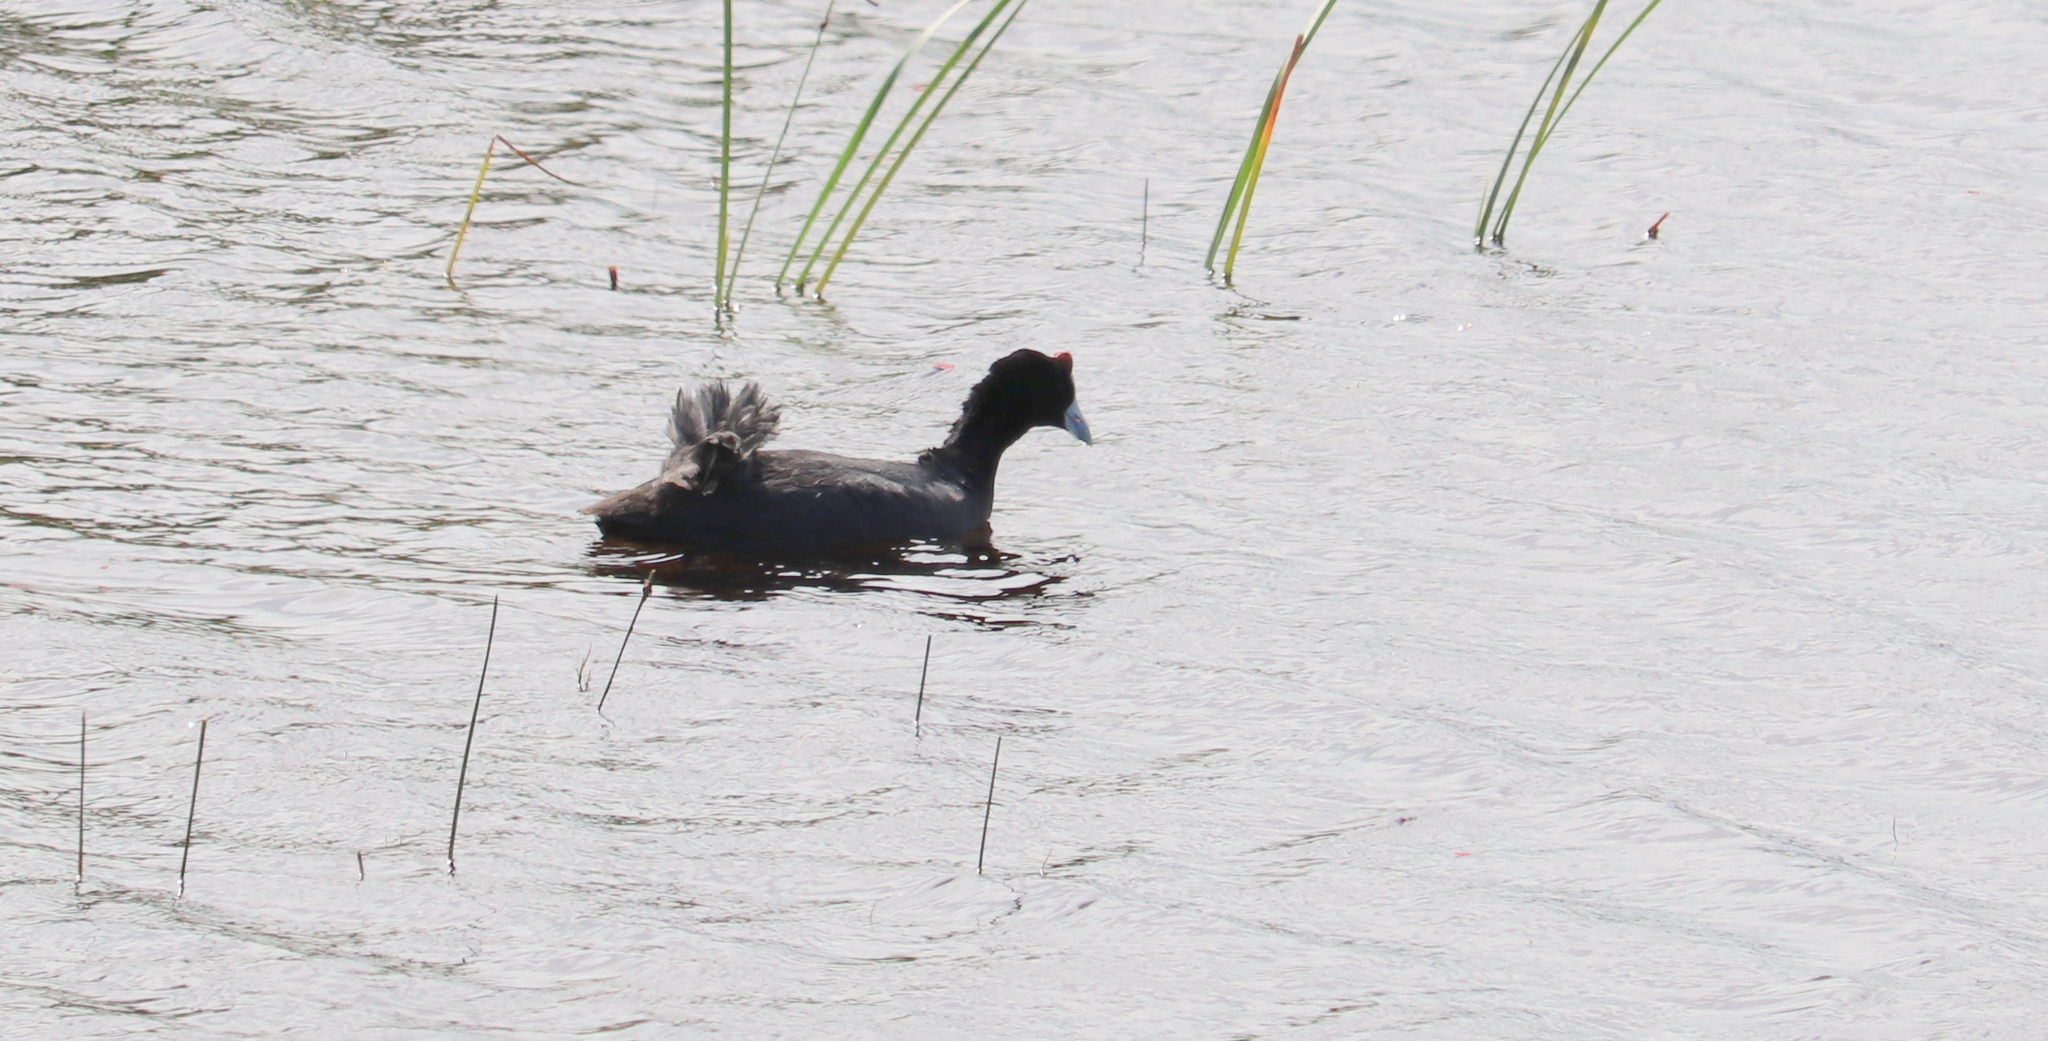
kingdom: Animalia
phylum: Chordata
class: Aves
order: Gruiformes
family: Rallidae
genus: Fulica
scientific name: Fulica cristata
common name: Red-knobbed coot
